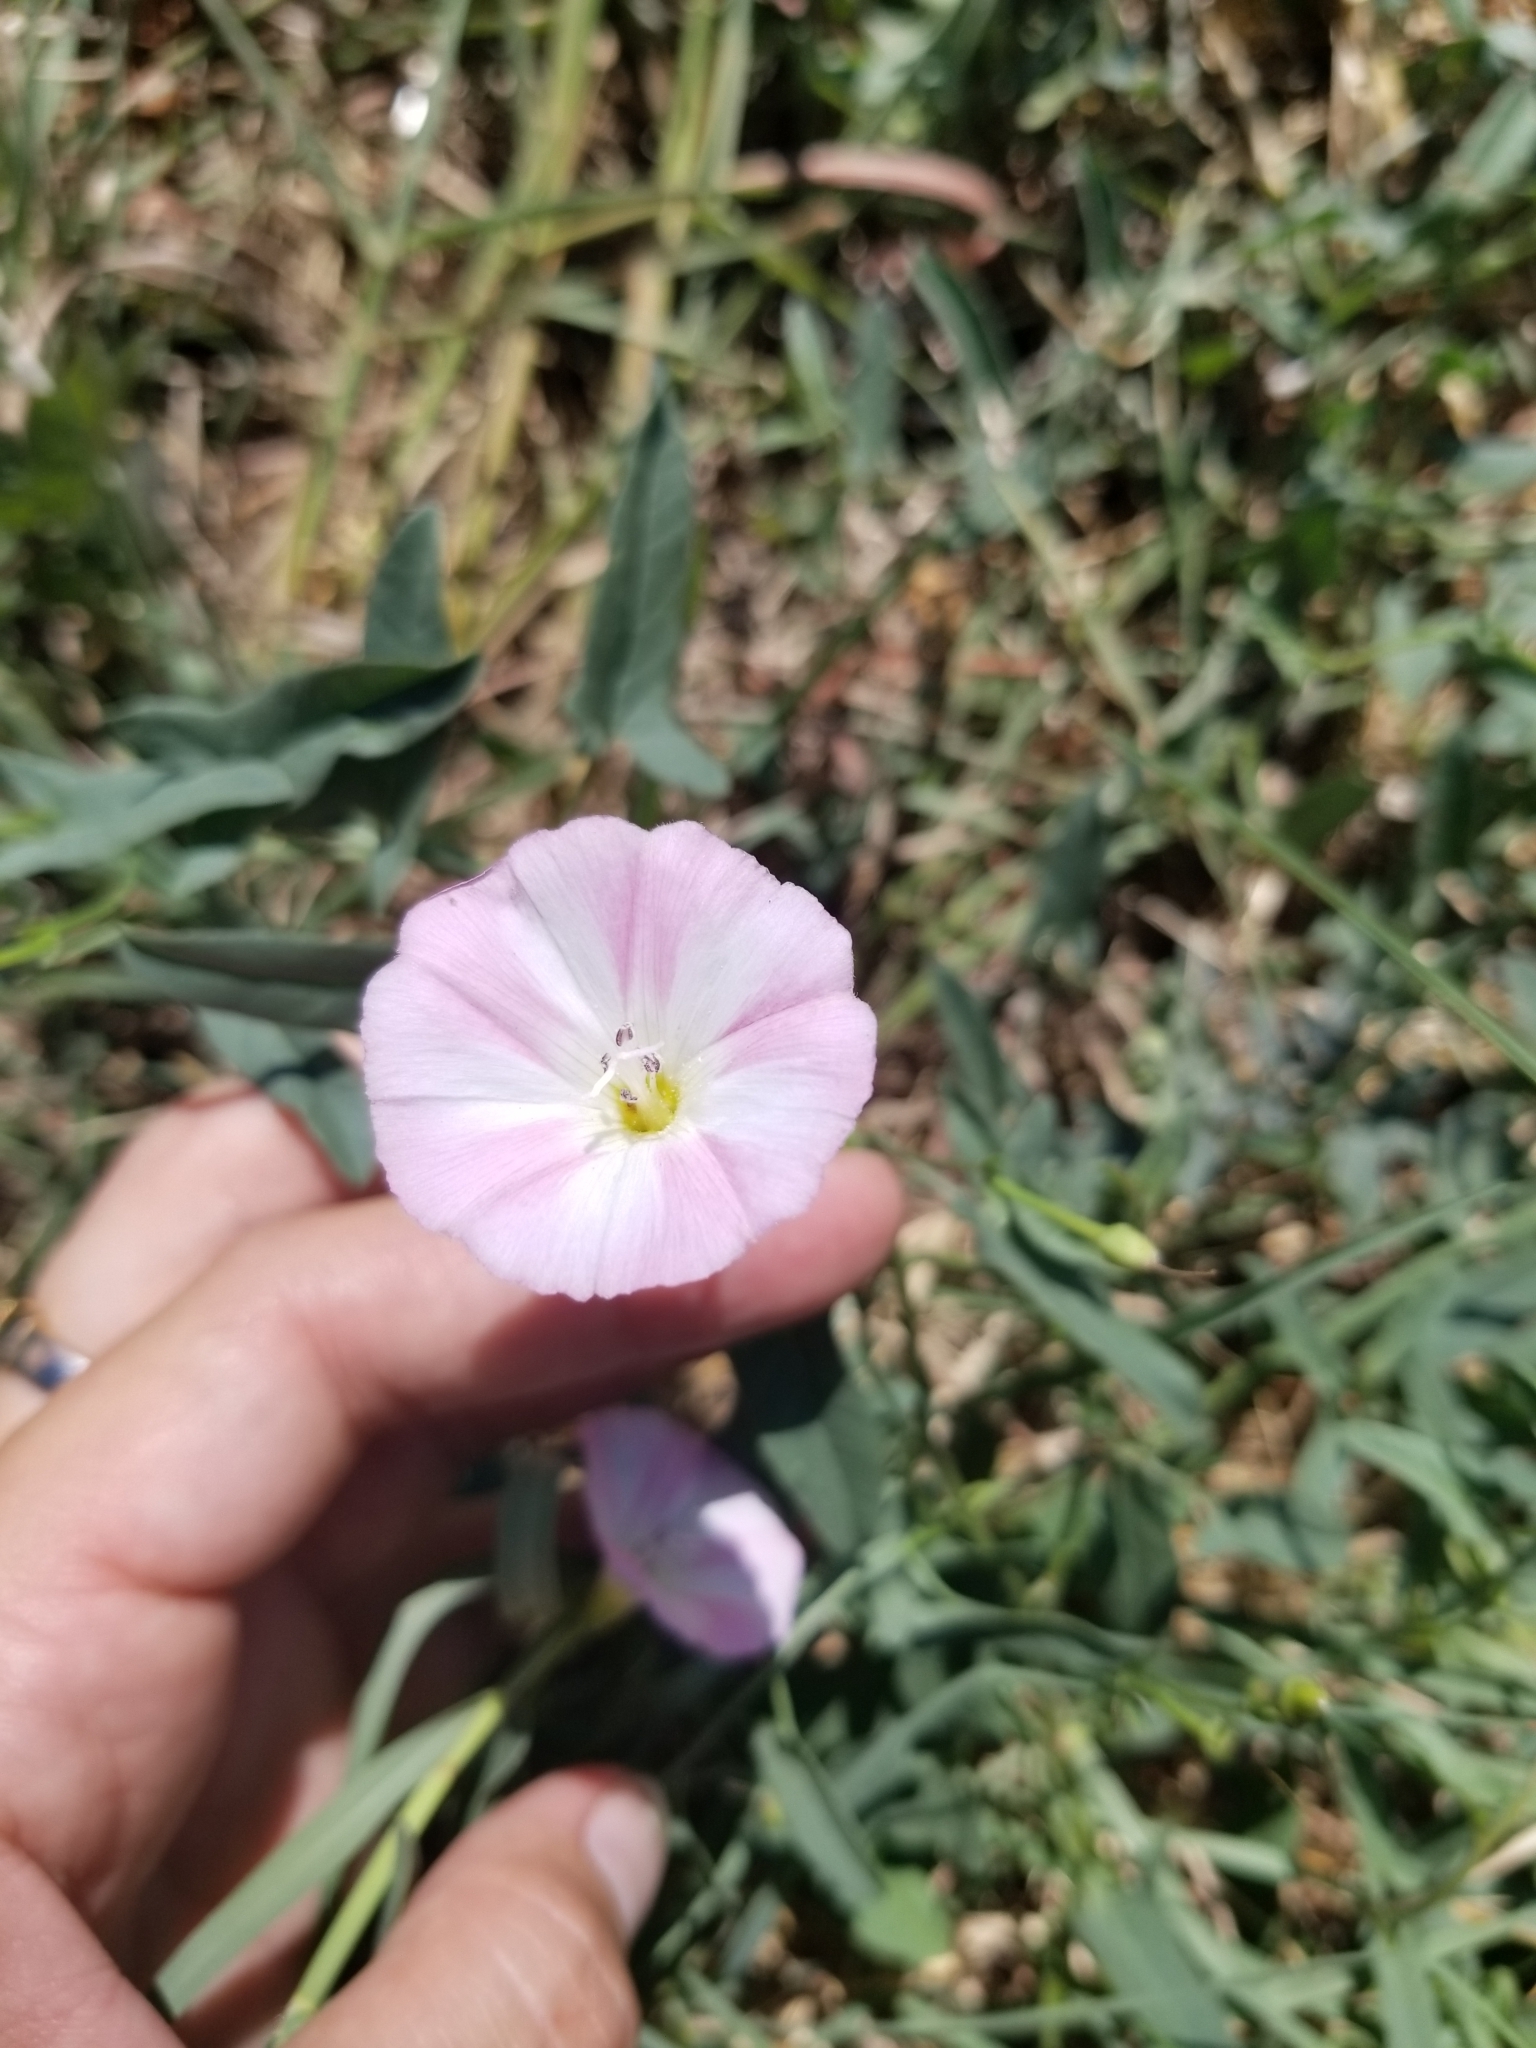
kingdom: Plantae
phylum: Tracheophyta
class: Magnoliopsida
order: Solanales
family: Convolvulaceae
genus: Convolvulus
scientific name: Convolvulus arvensis
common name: Field bindweed
